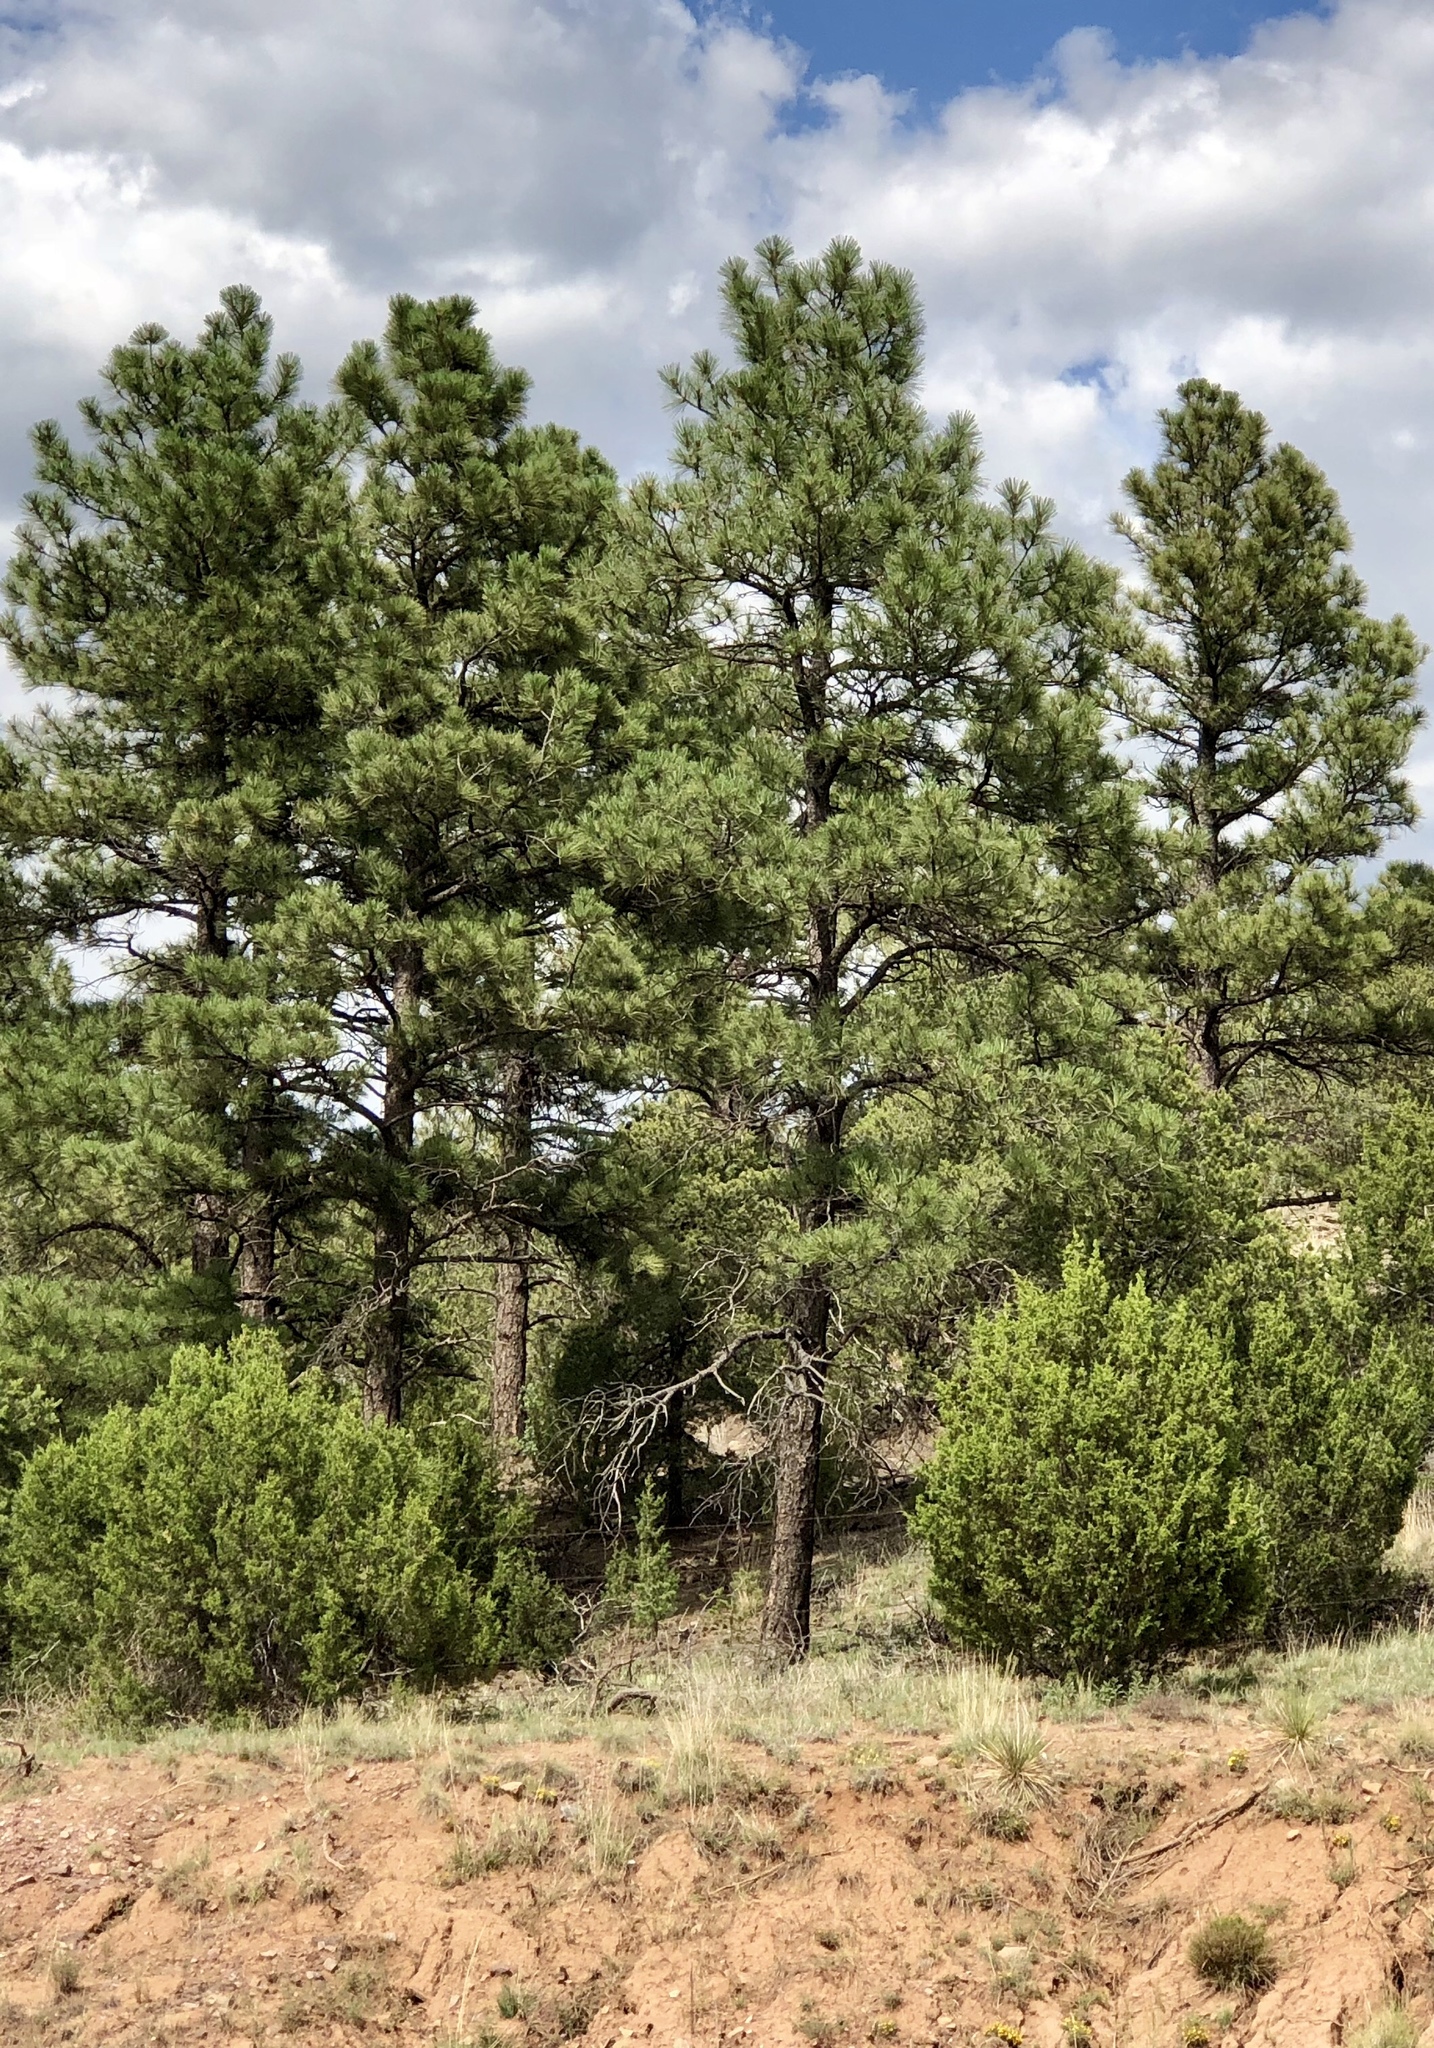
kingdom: Plantae
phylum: Tracheophyta
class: Pinopsida
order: Pinales
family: Pinaceae
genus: Pinus
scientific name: Pinus ponderosa
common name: Western yellow-pine
